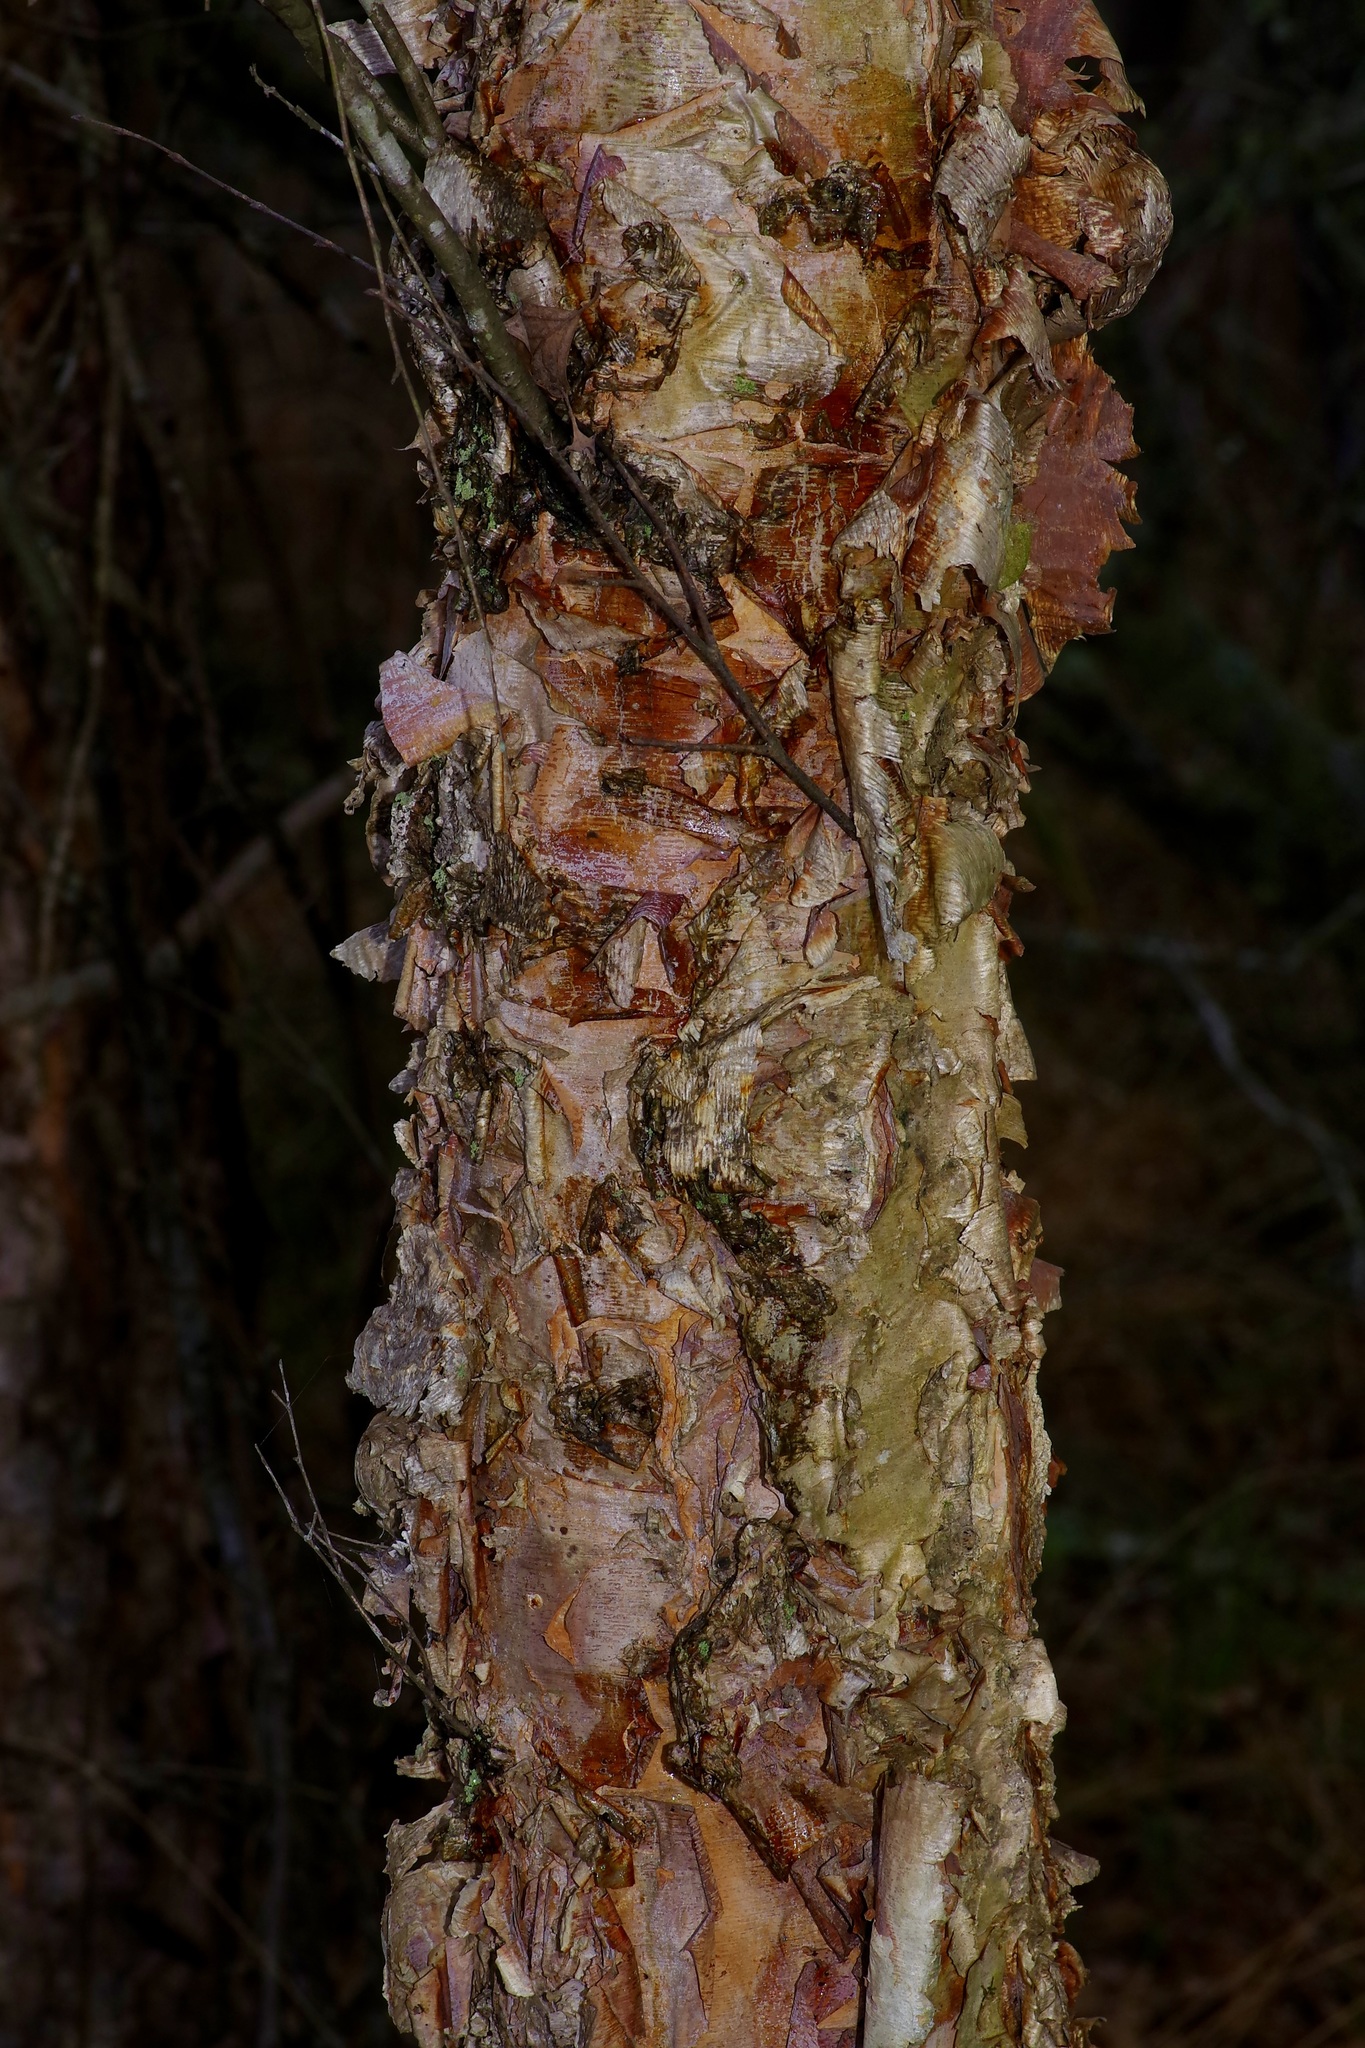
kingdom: Plantae
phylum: Tracheophyta
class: Magnoliopsida
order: Fagales
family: Betulaceae
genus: Betula
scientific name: Betula nigra
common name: Black birch
